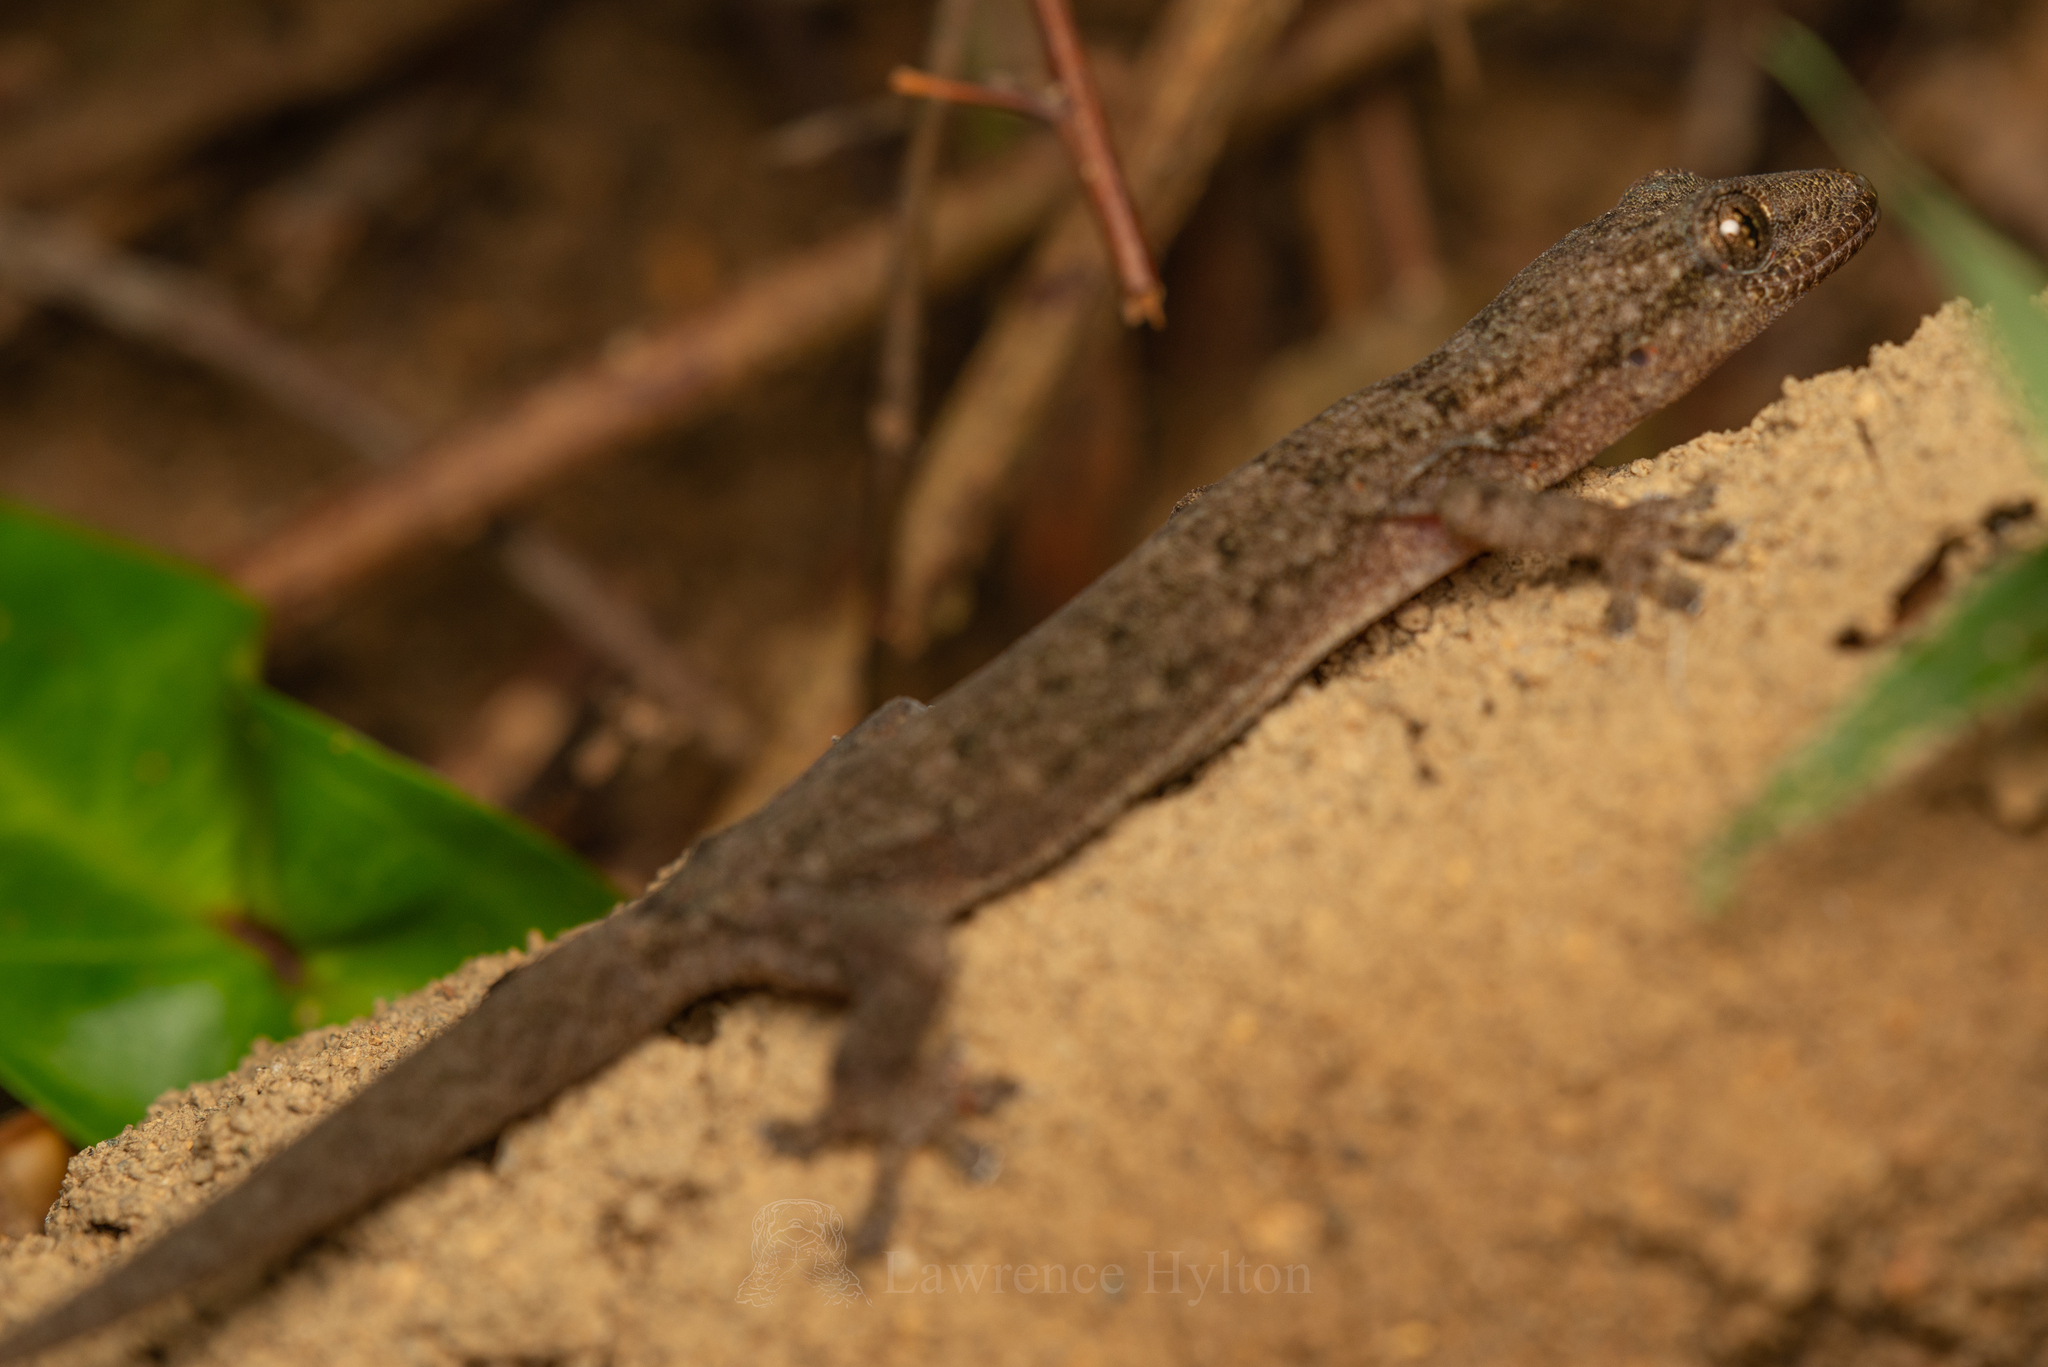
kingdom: Animalia
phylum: Chordata
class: Squamata
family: Gekkonidae
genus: Hemidactylus
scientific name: Hemidactylus bowringii
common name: Oriental leaf-toed gecko
